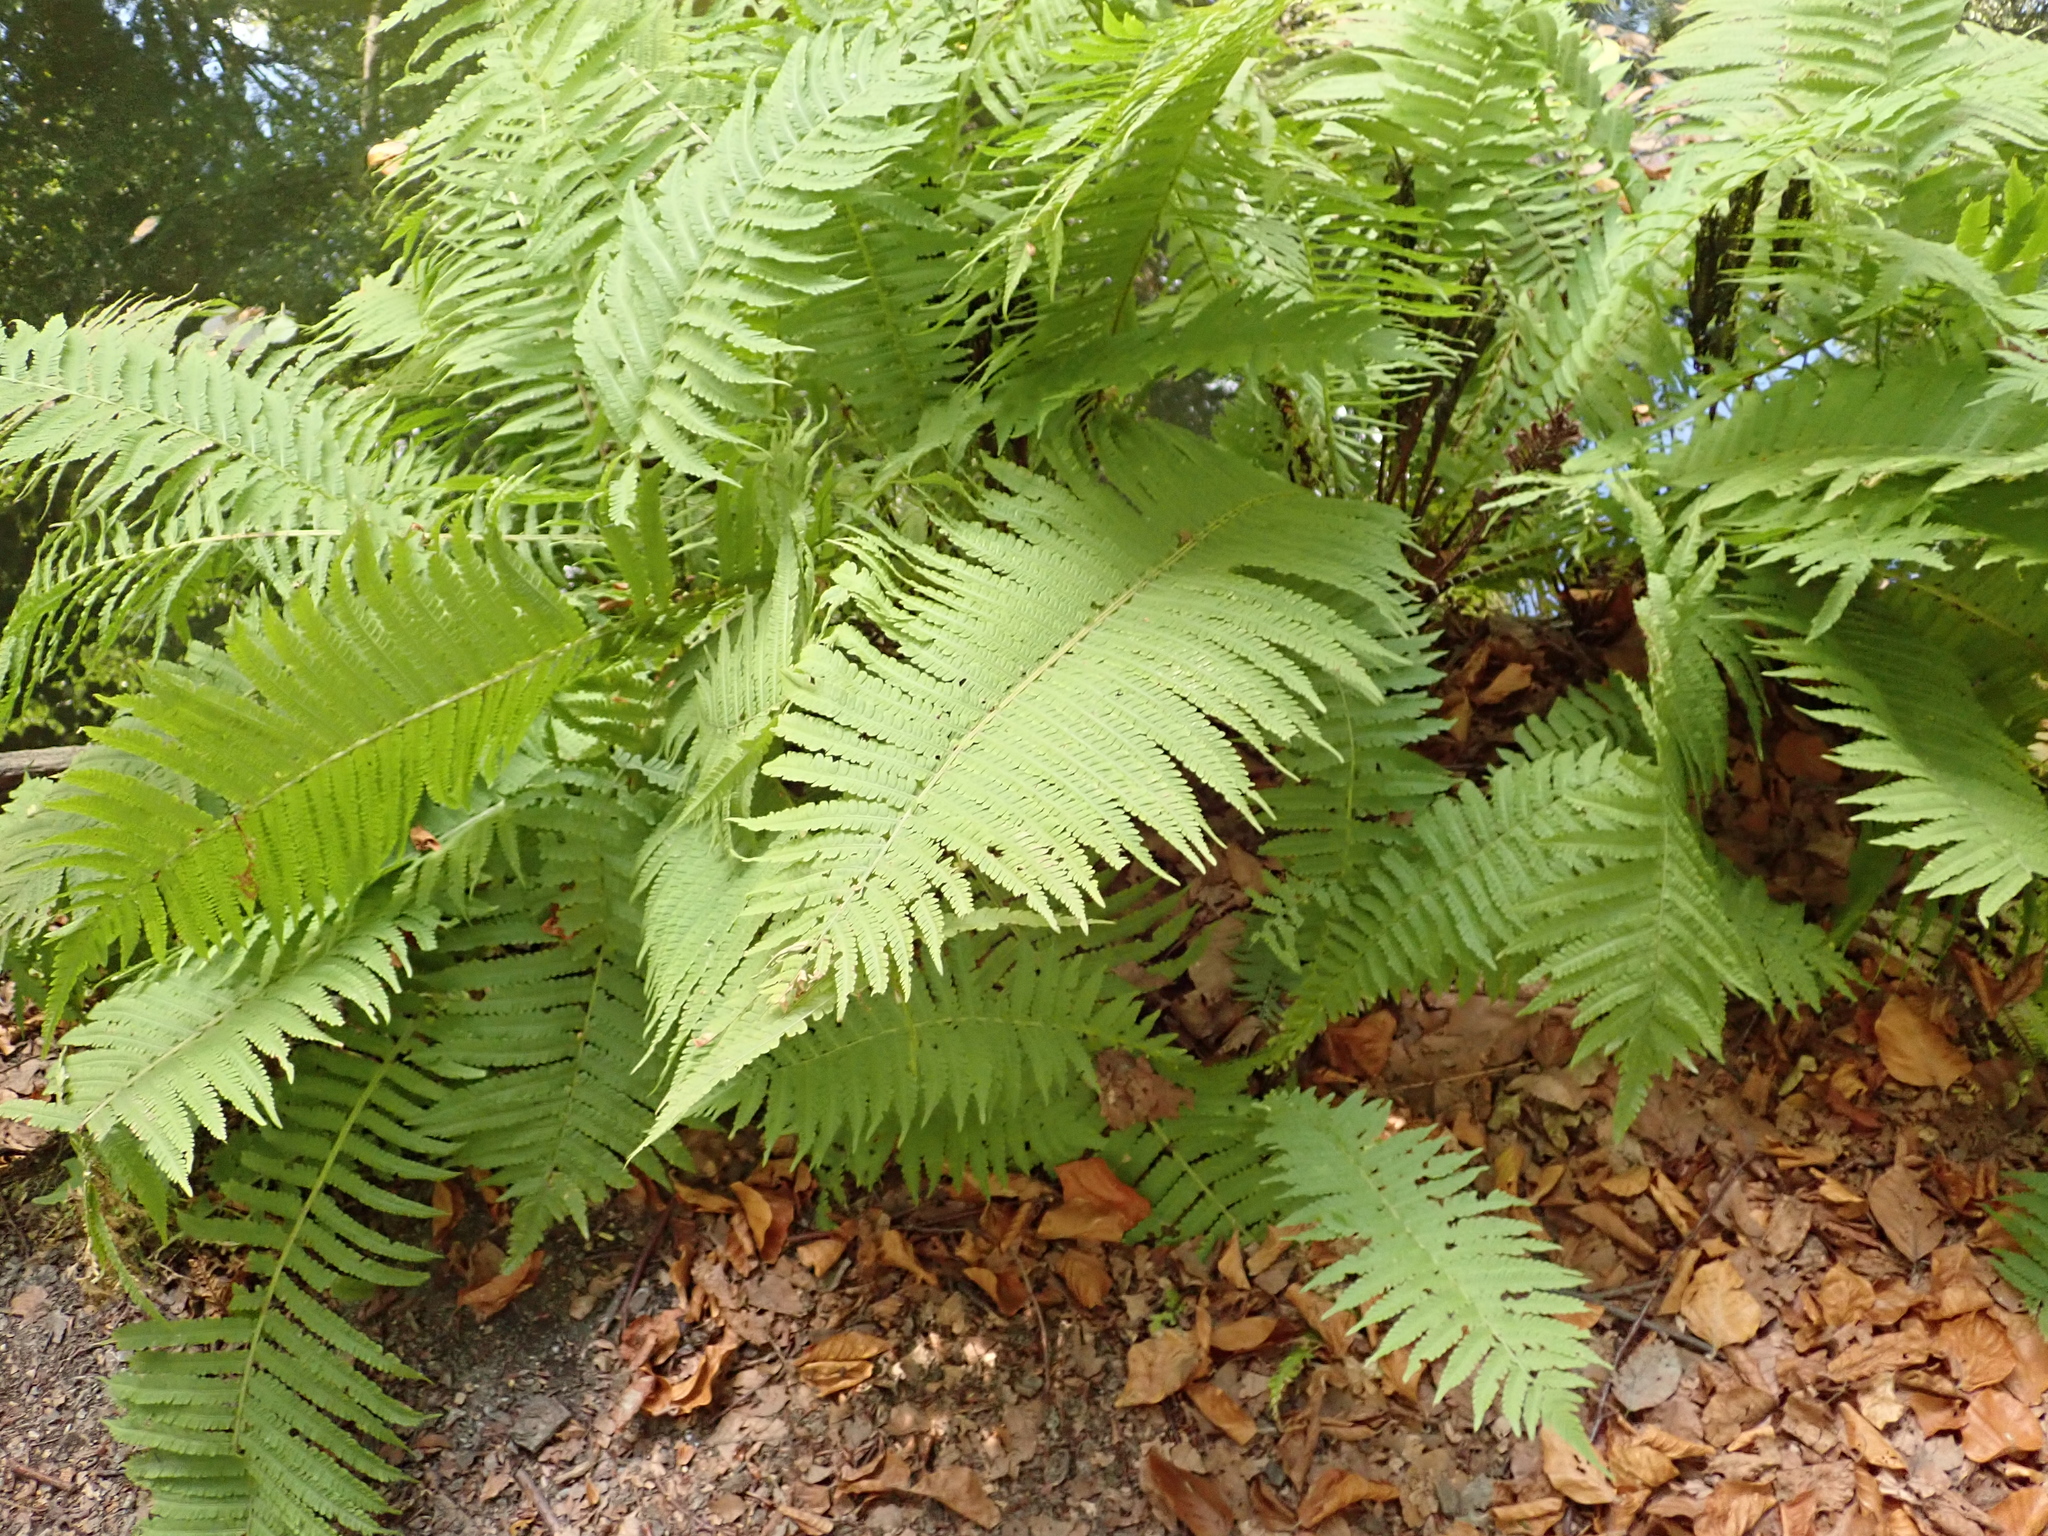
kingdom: Plantae
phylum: Tracheophyta
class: Polypodiopsida
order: Polypodiales
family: Onocleaceae
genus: Matteuccia
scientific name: Matteuccia struthiopteris
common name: Ostrich fern
